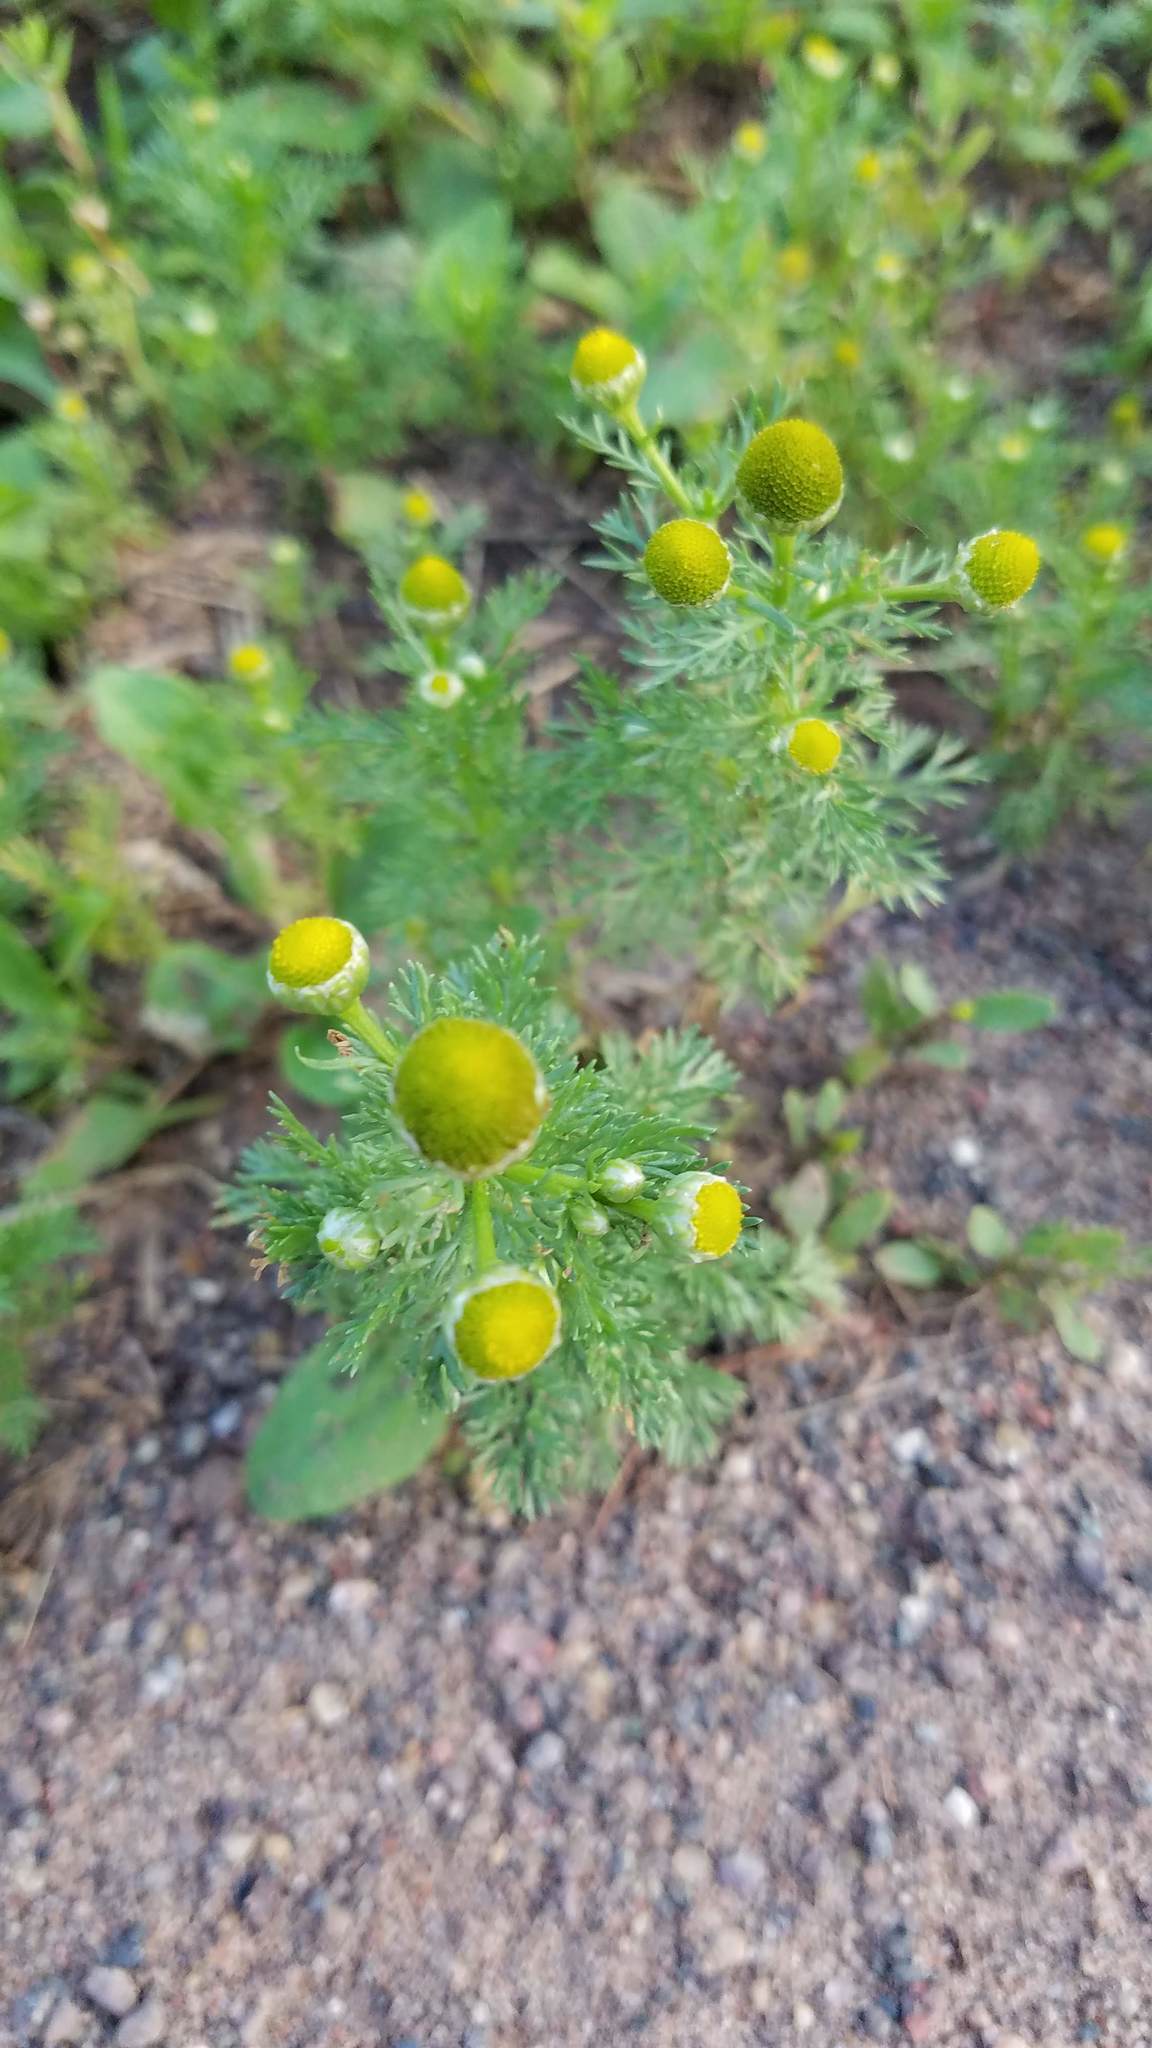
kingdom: Plantae
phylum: Tracheophyta
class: Magnoliopsida
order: Asterales
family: Asteraceae
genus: Matricaria
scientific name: Matricaria discoidea
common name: Disc mayweed
